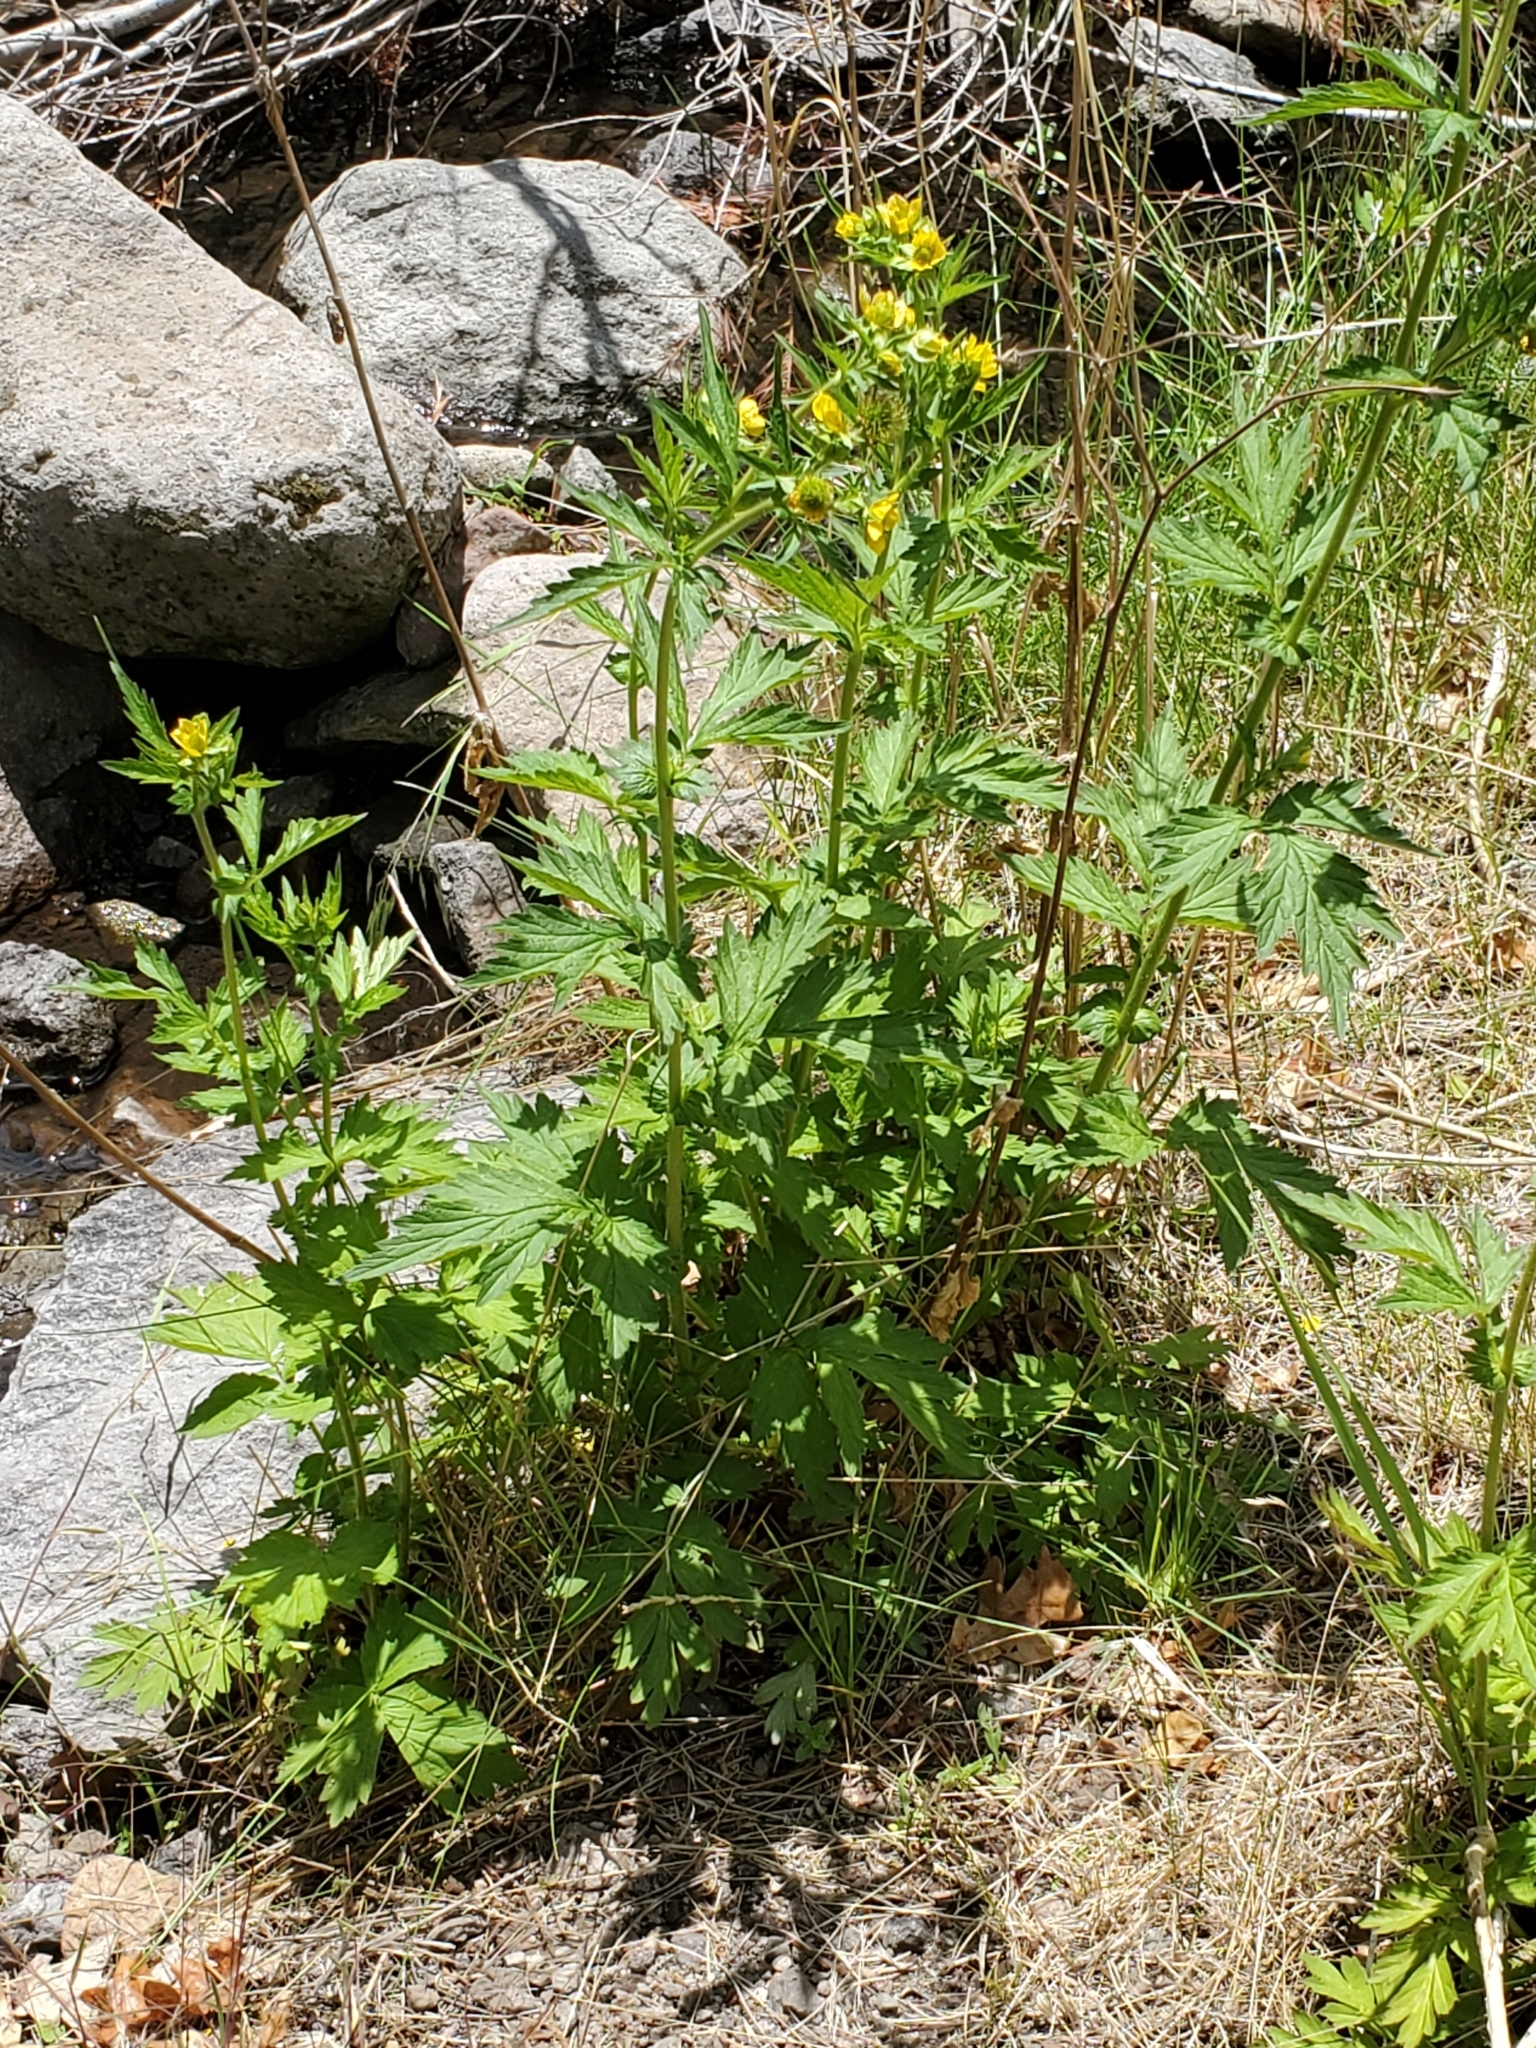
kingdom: Plantae
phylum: Tracheophyta
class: Magnoliopsida
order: Rosales
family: Rosaceae
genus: Geum
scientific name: Geum aleppicum
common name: Yellow avens
